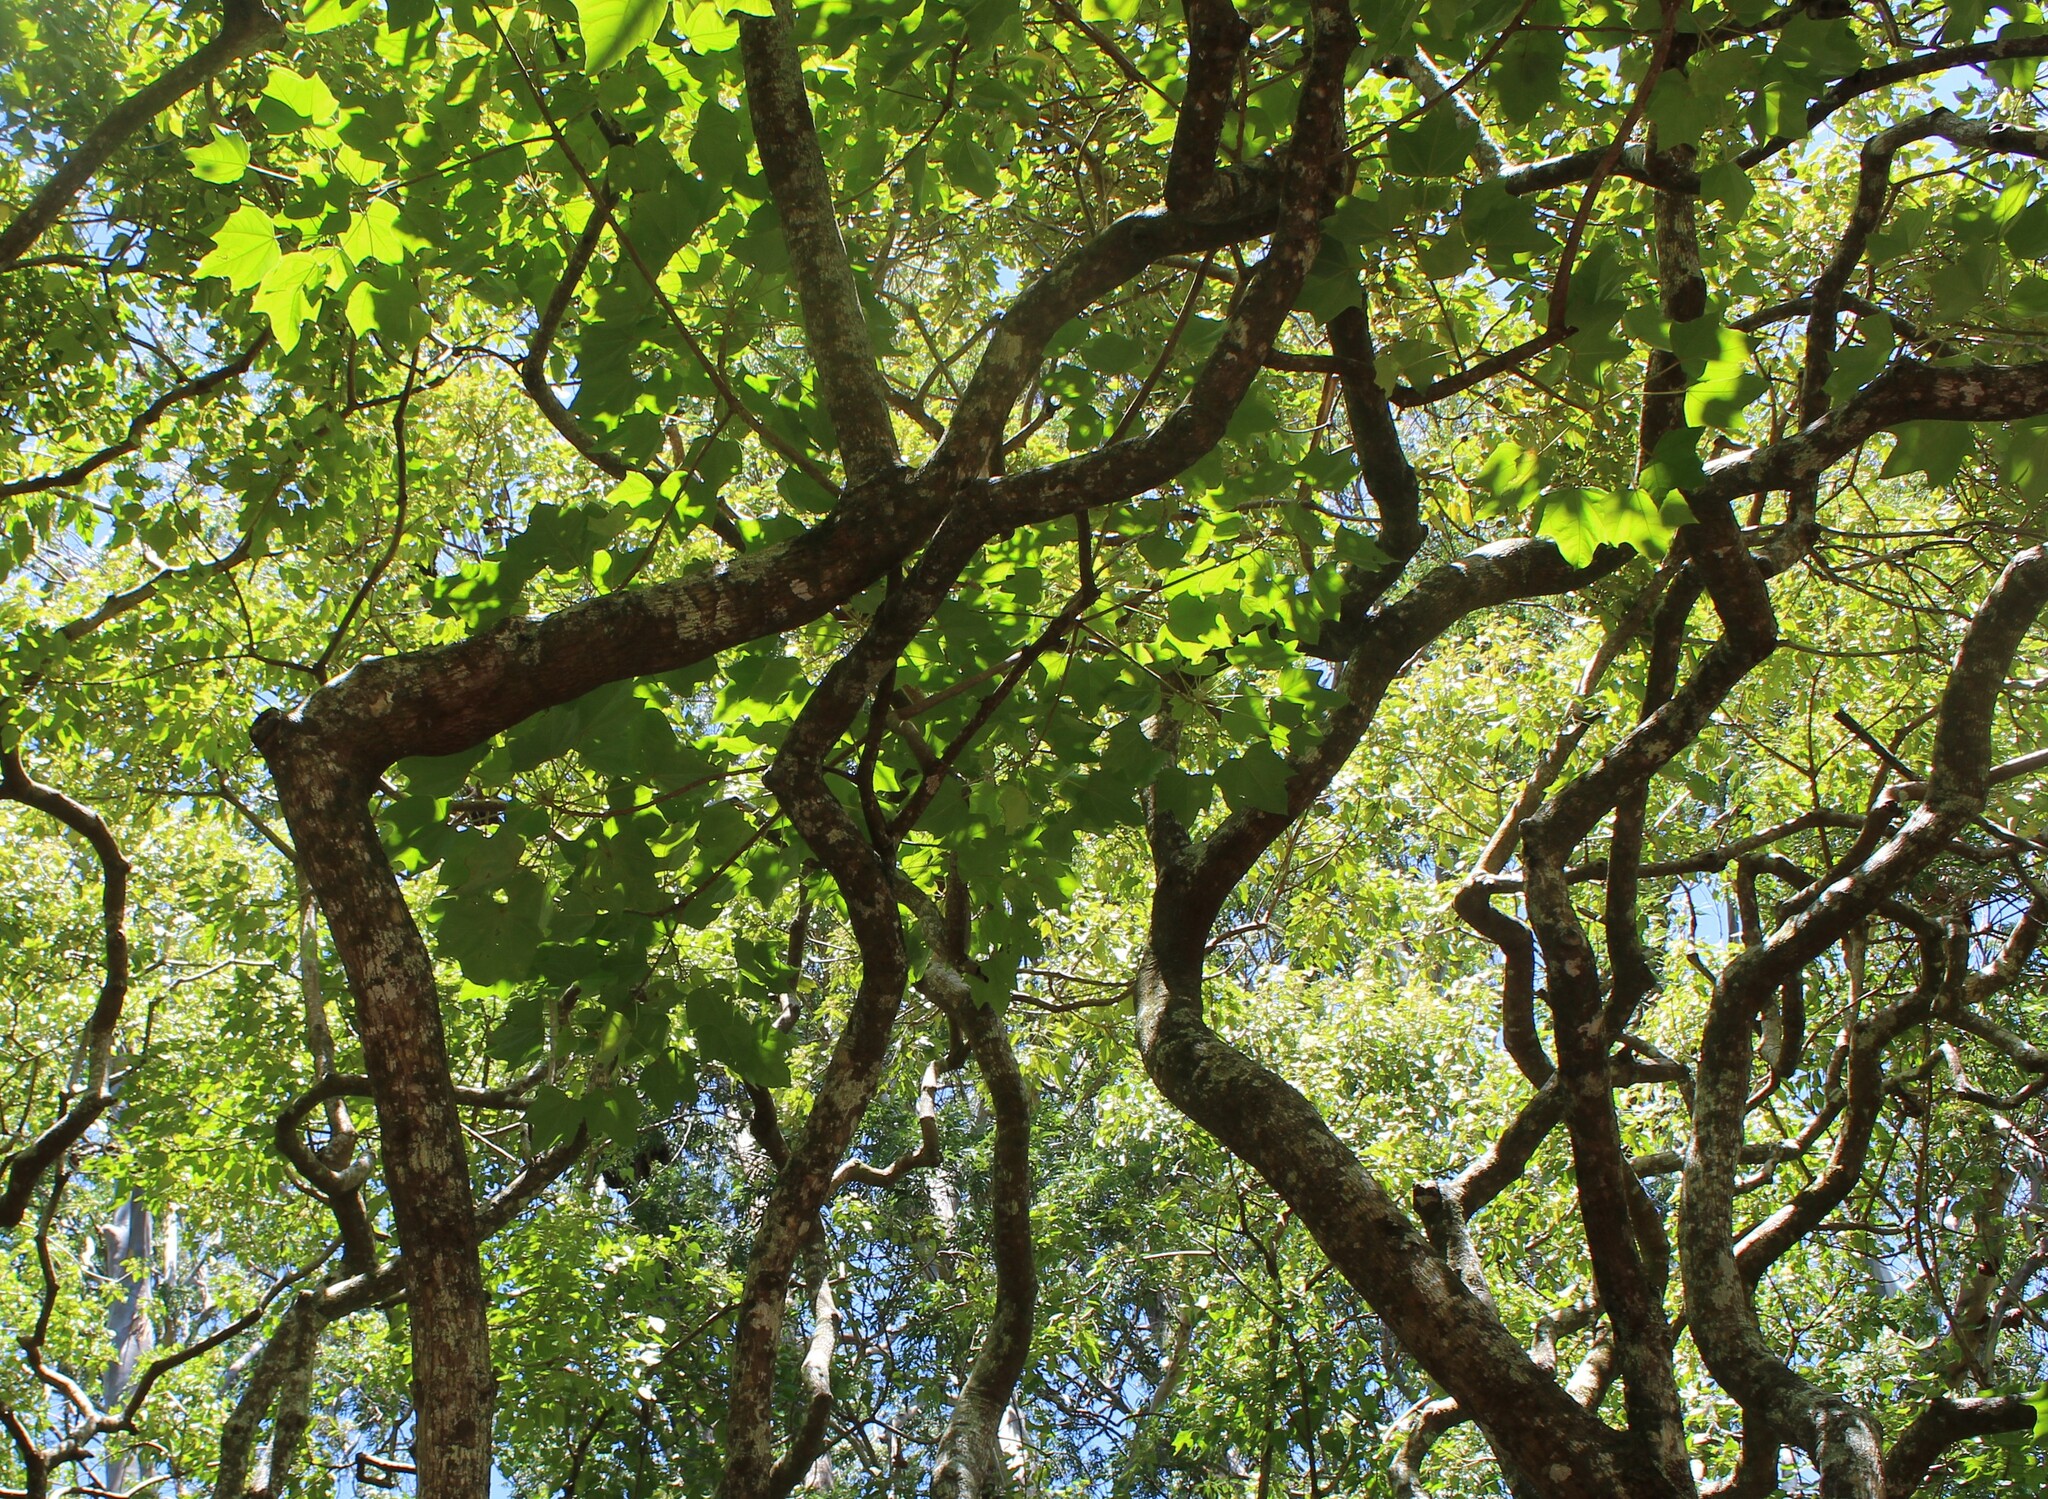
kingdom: Plantae
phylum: Tracheophyta
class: Magnoliopsida
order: Malpighiales
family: Euphorbiaceae
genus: Aleurites
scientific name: Aleurites moluccanus
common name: Candlenut tree
